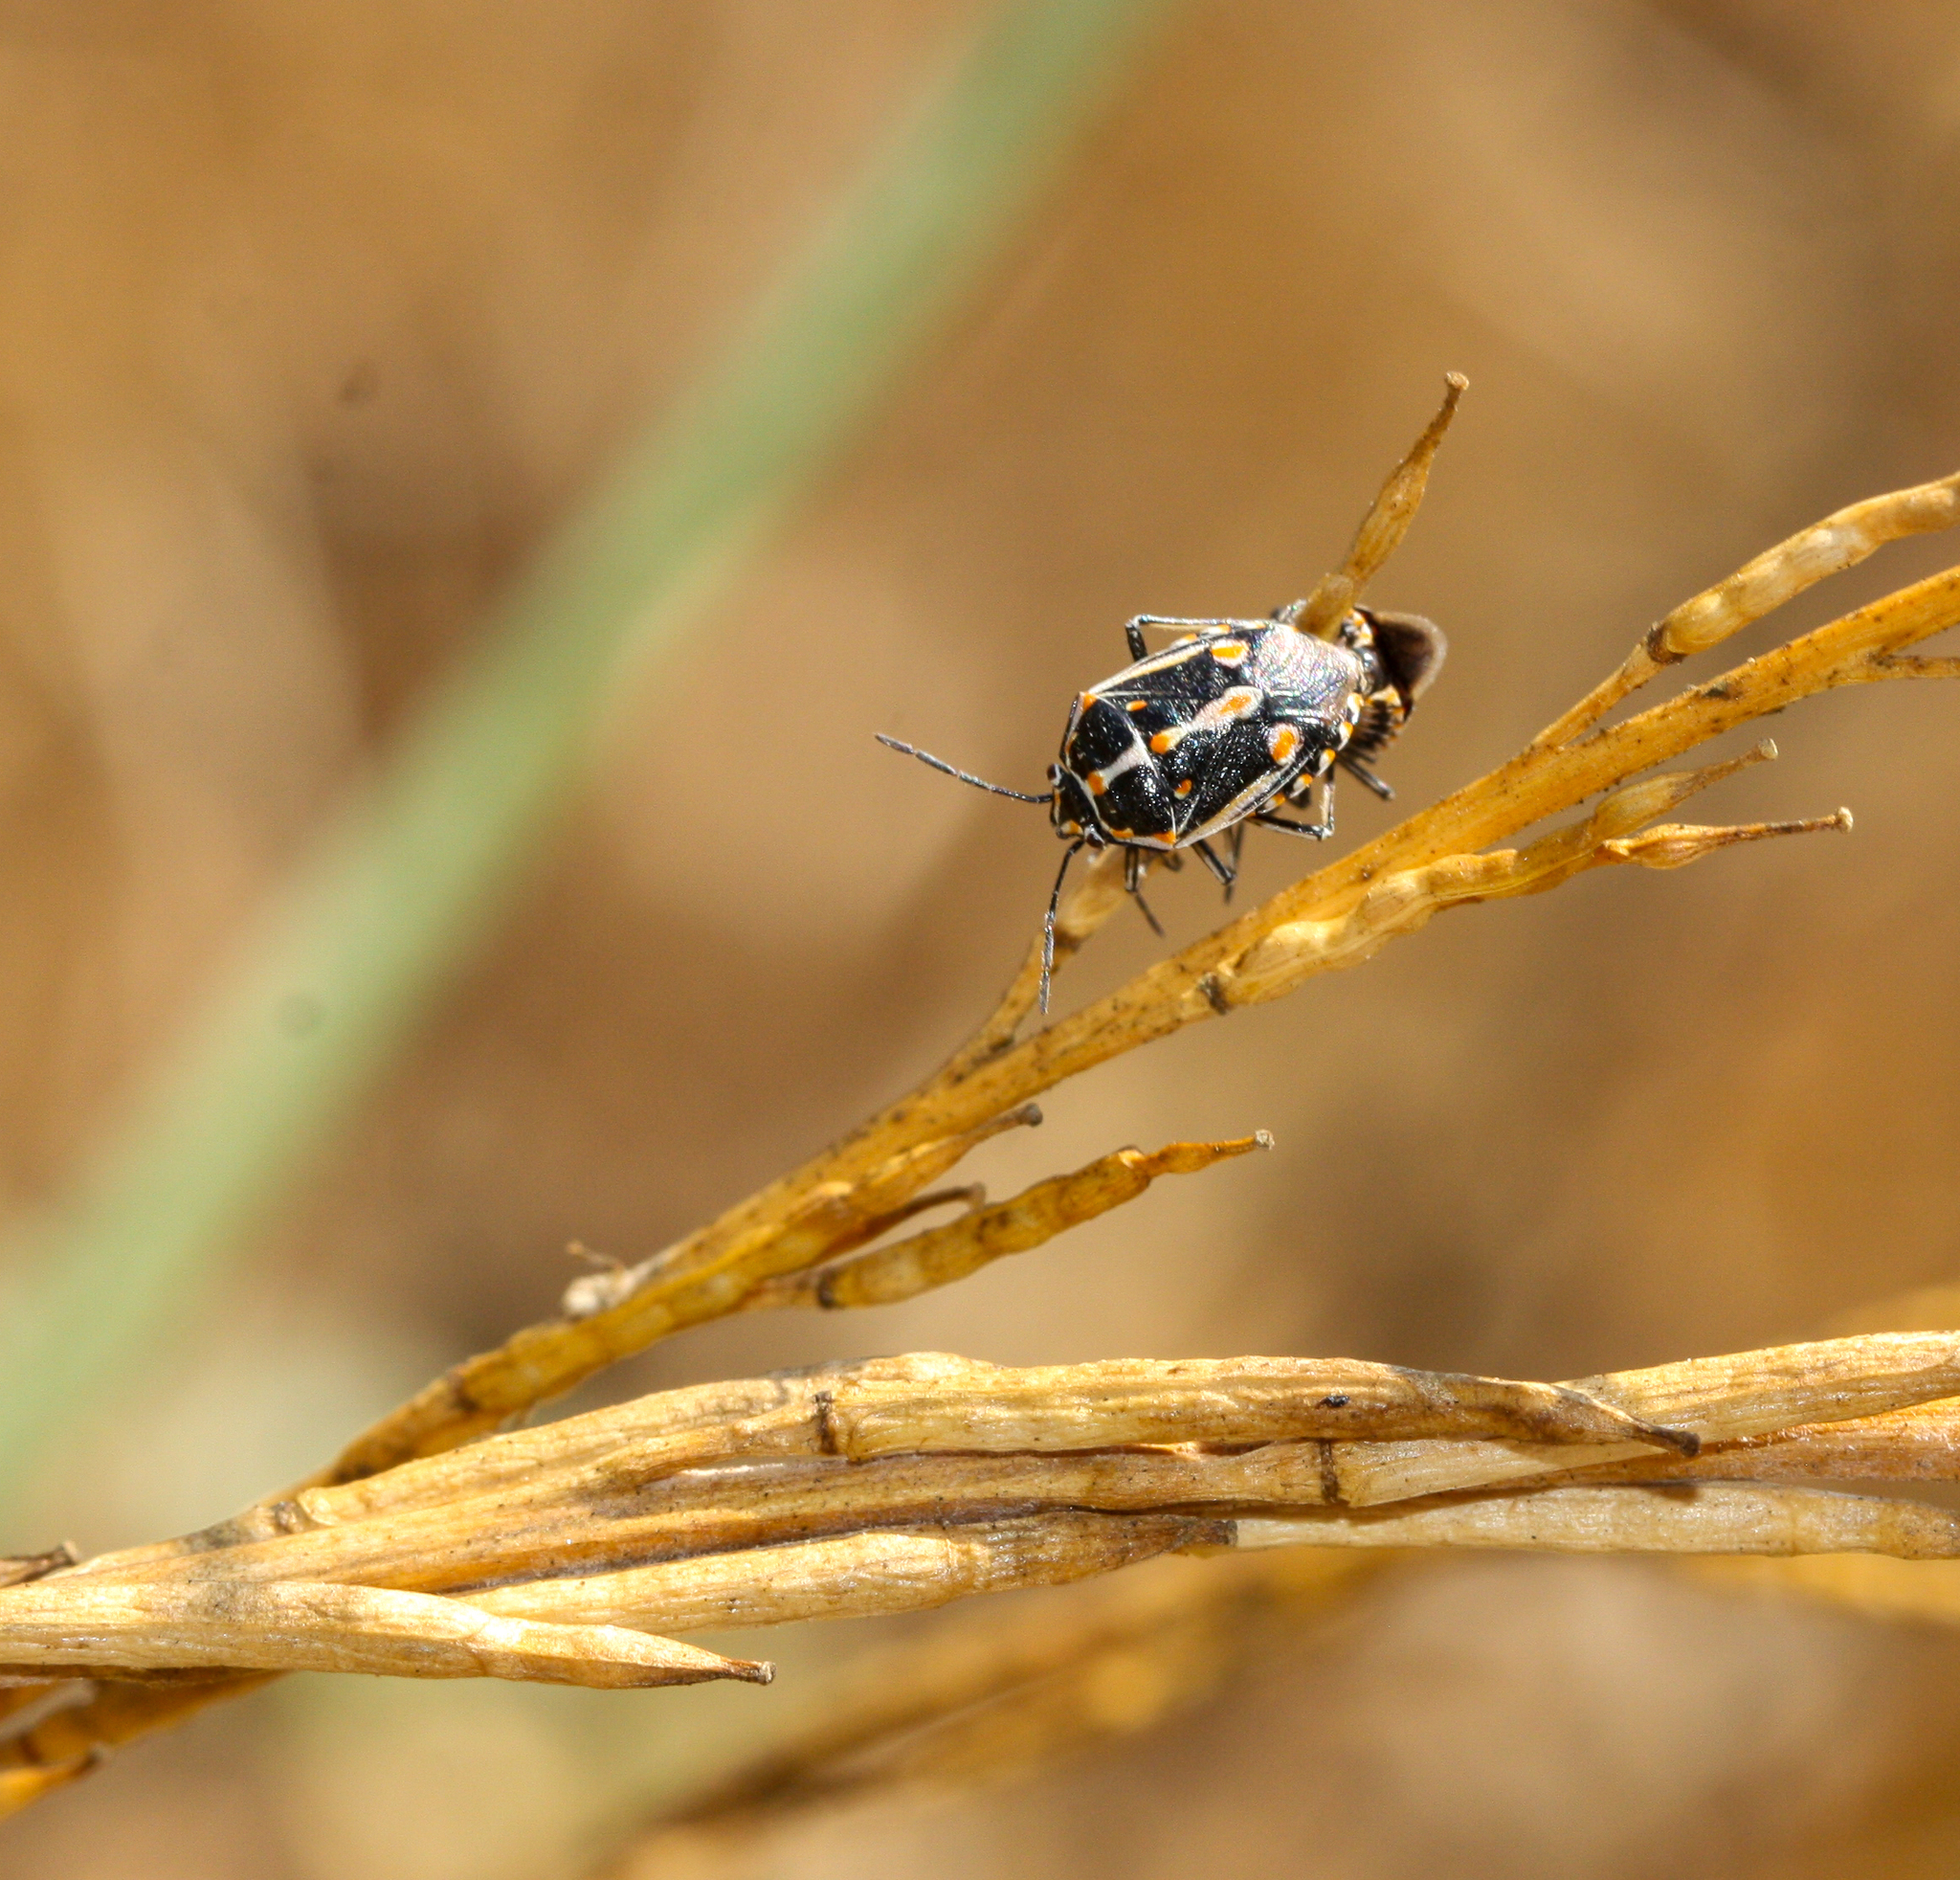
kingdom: Animalia
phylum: Arthropoda
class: Insecta
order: Hemiptera
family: Pentatomidae
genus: Bagrada
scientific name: Bagrada hilaris
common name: Bagrada bug
